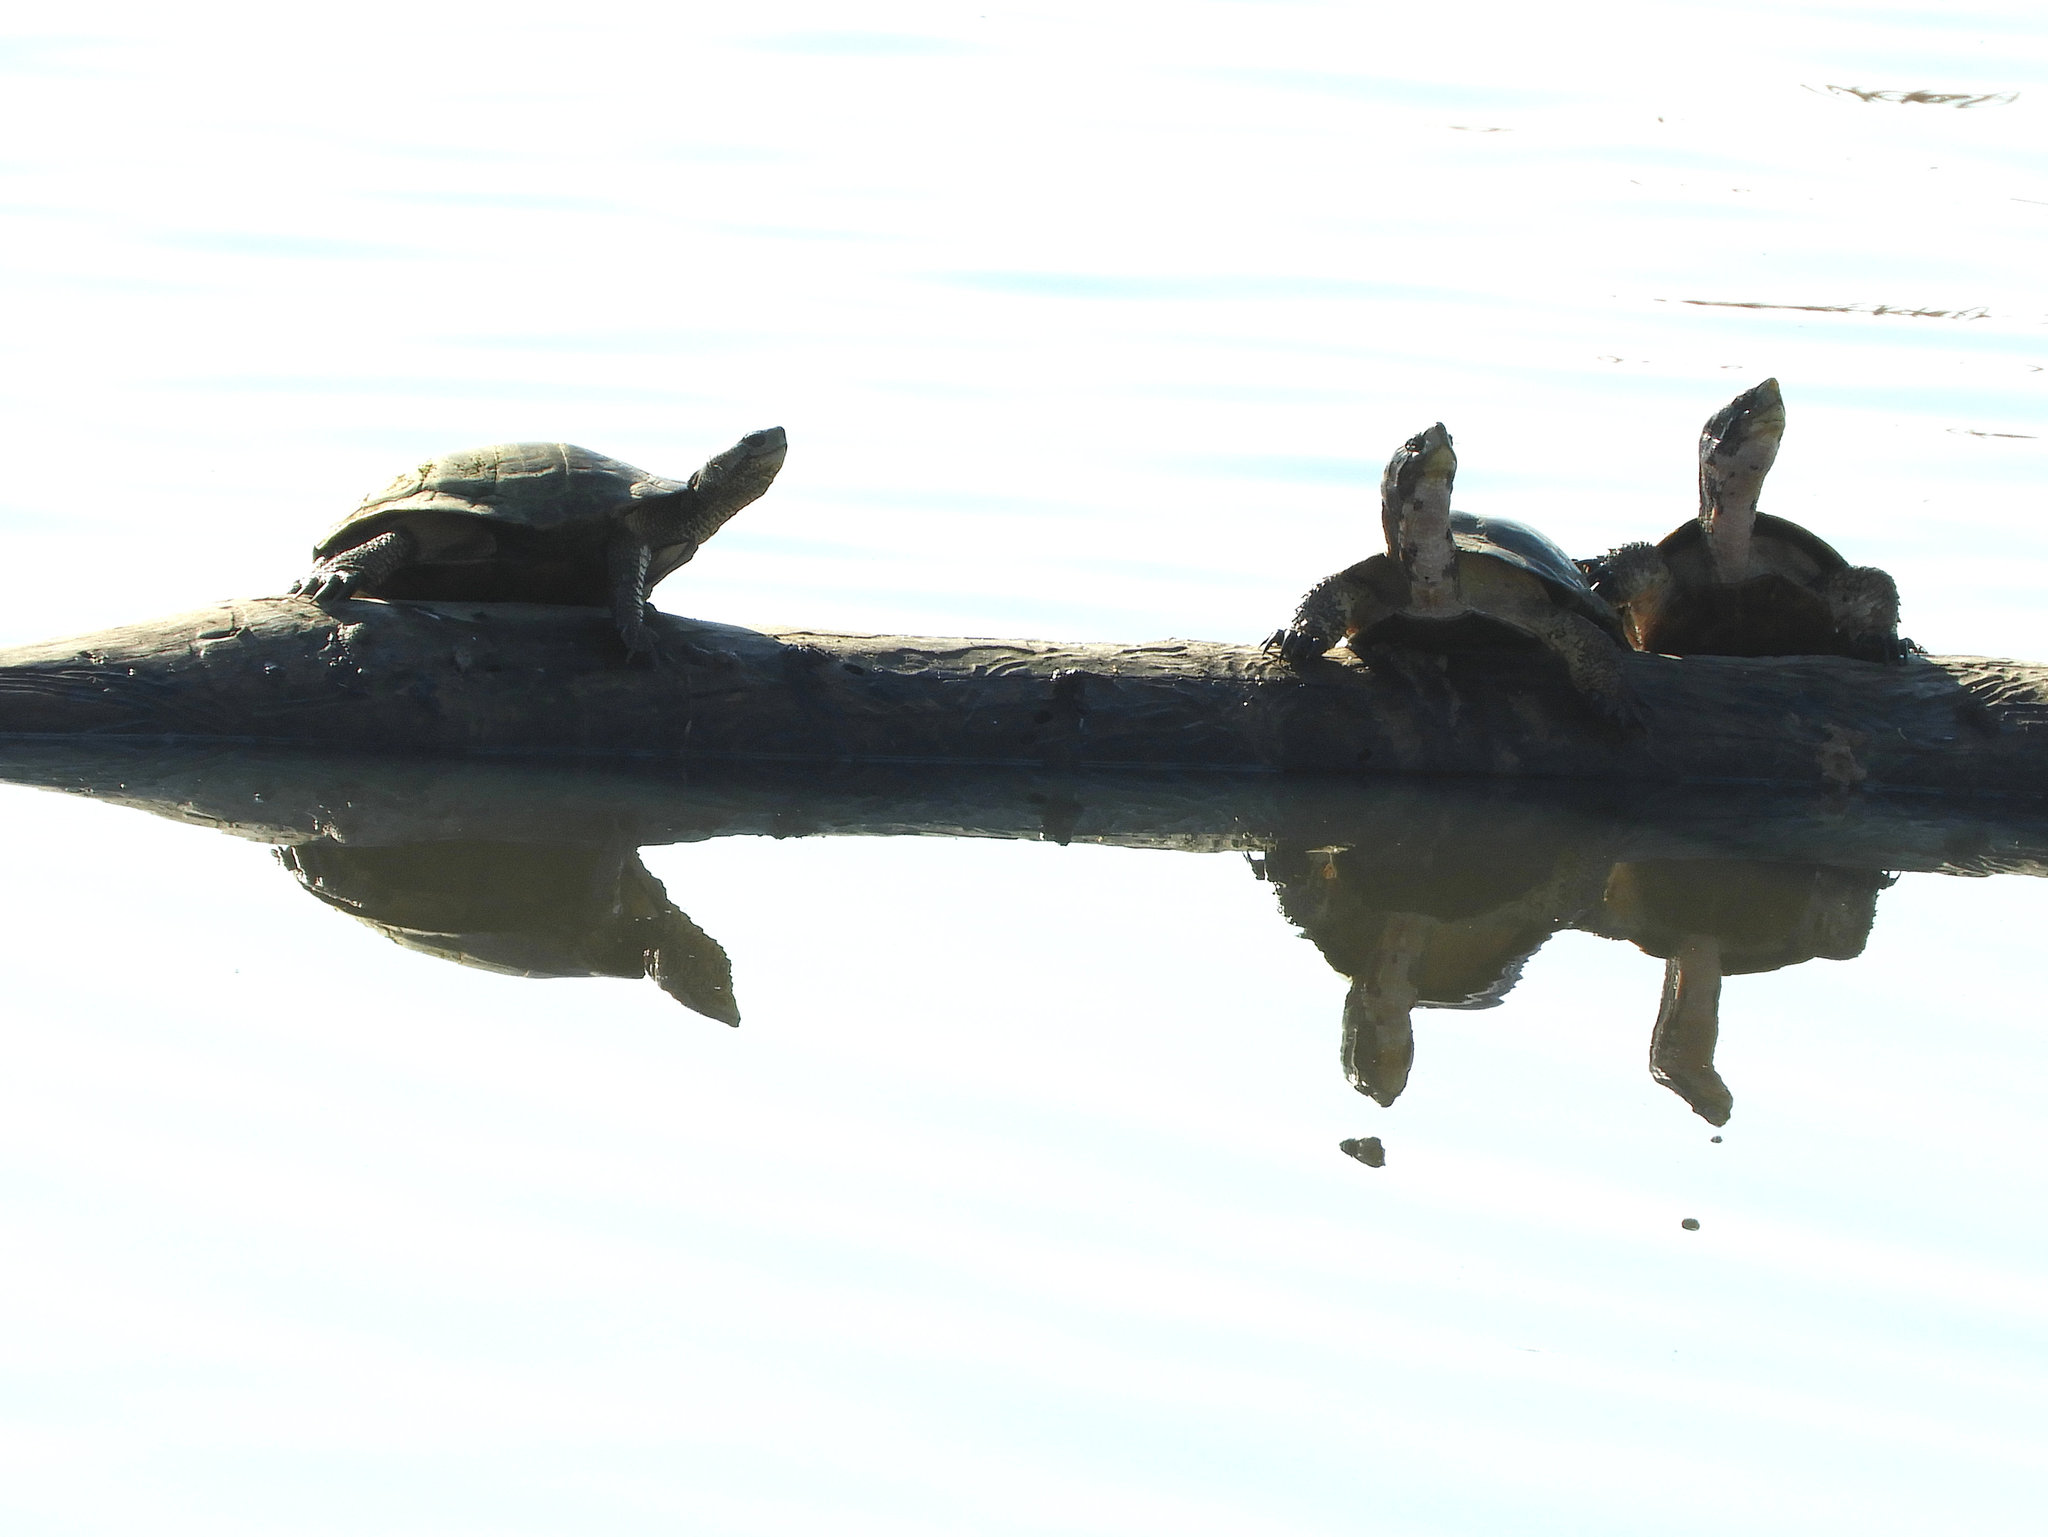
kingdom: Animalia
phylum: Chordata
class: Testudines
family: Emydidae
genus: Actinemys
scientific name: Actinemys marmorata
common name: Western pond turtle
